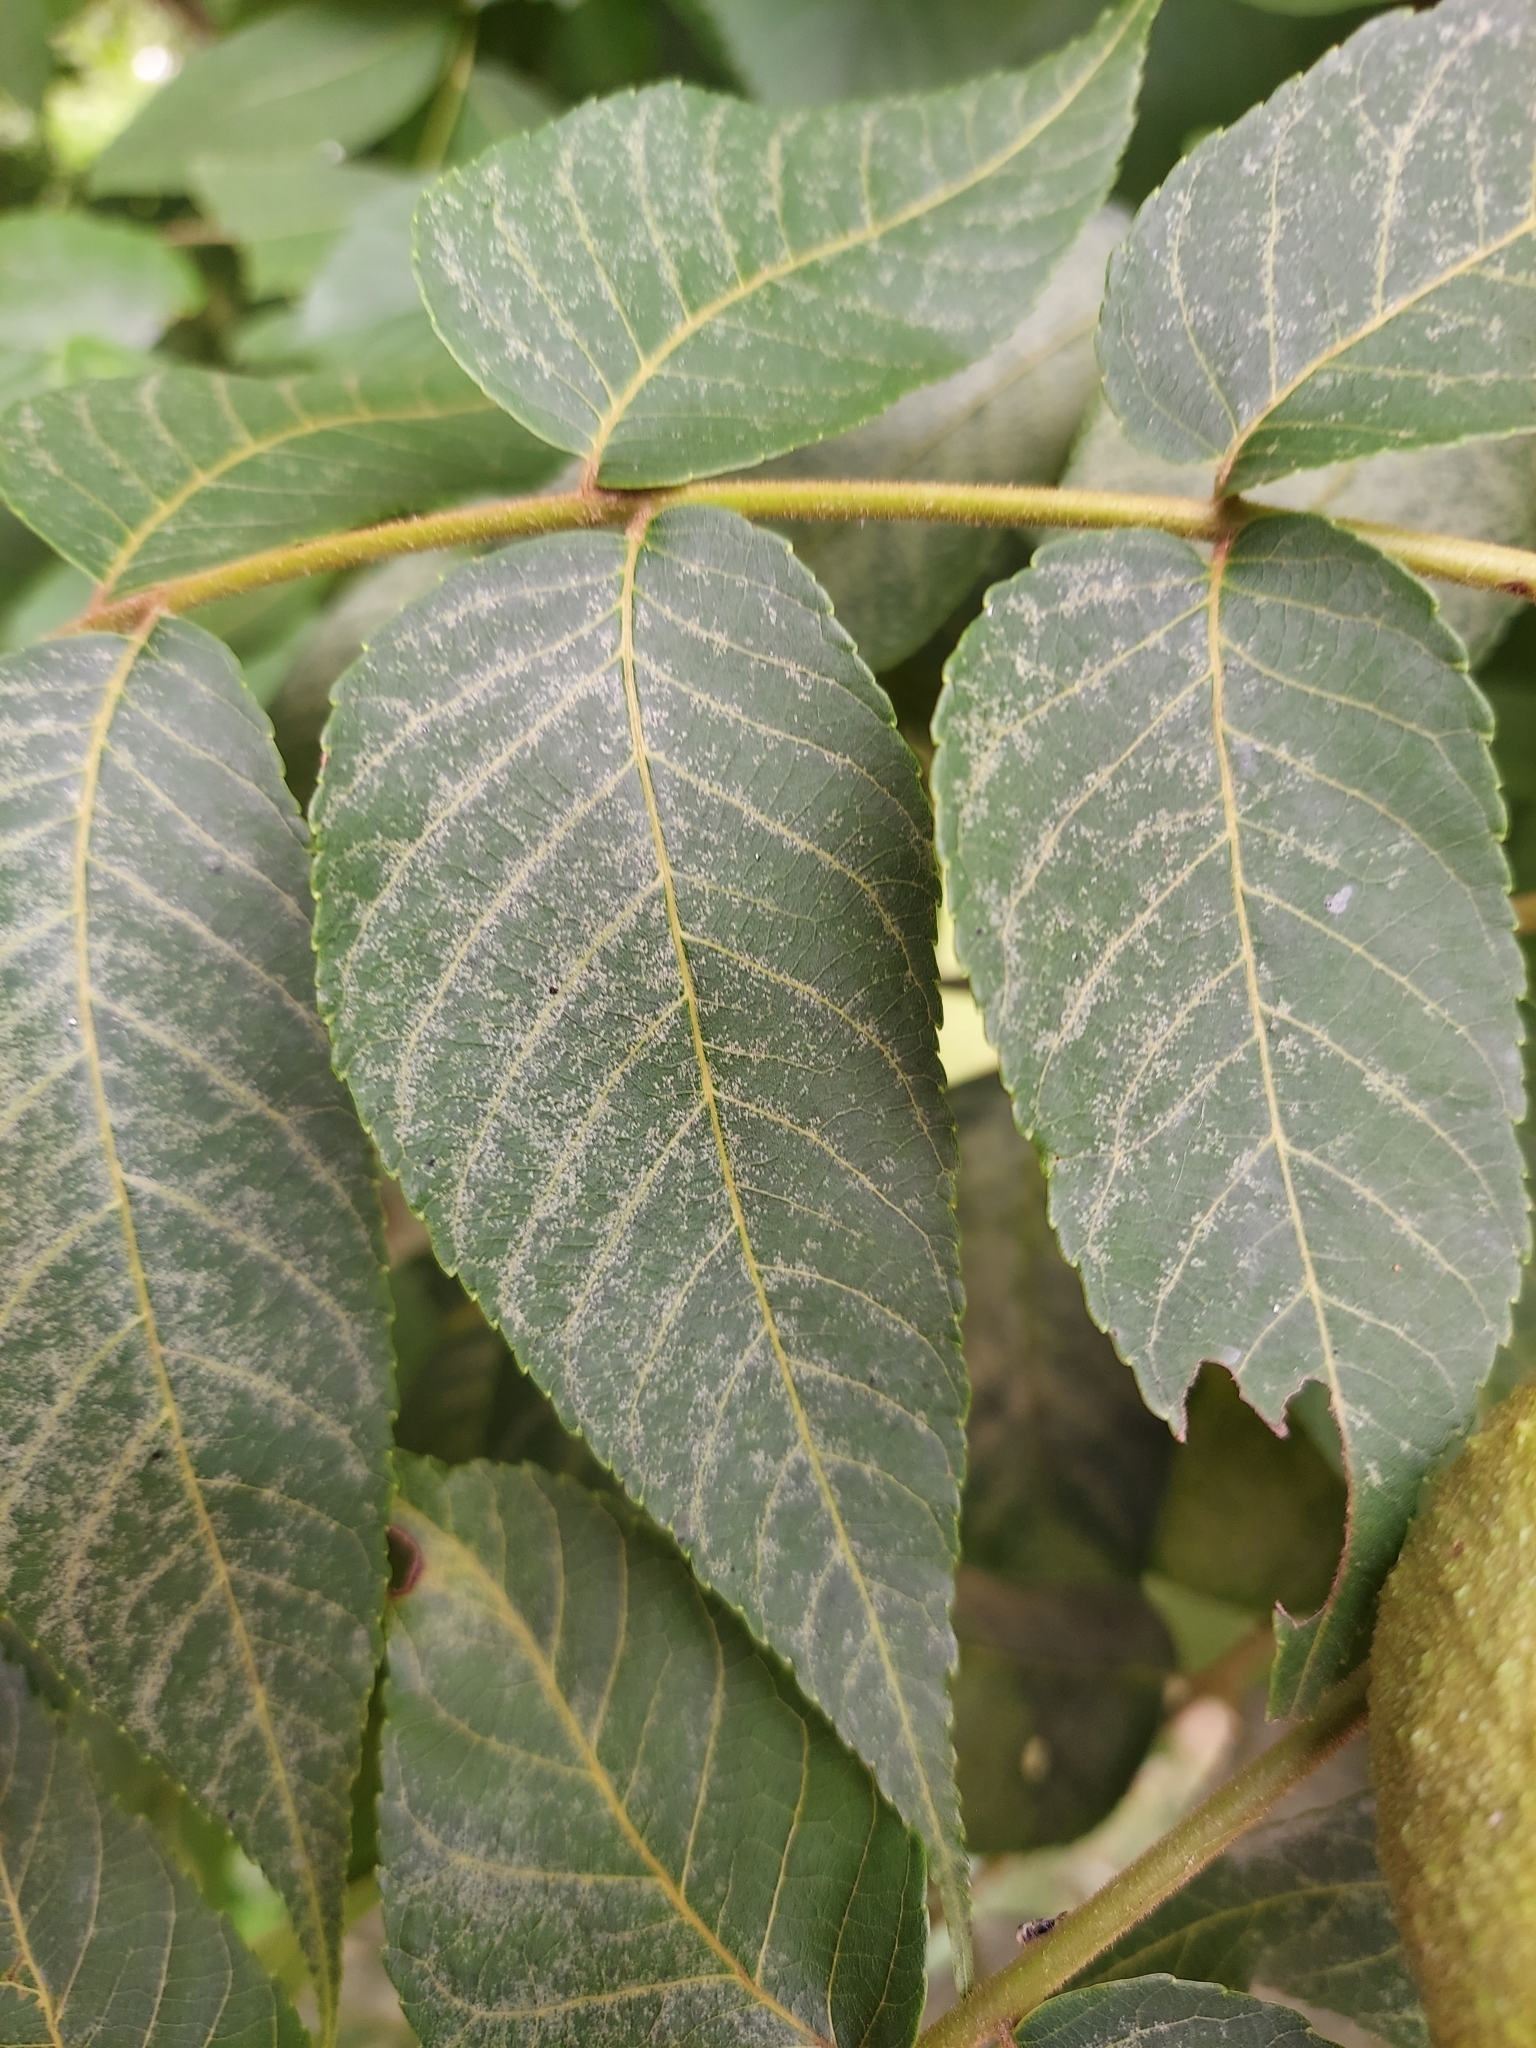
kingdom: Plantae
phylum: Tracheophyta
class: Magnoliopsida
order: Fagales
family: Juglandaceae
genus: Juglans
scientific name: Juglans nigra
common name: Black walnut
